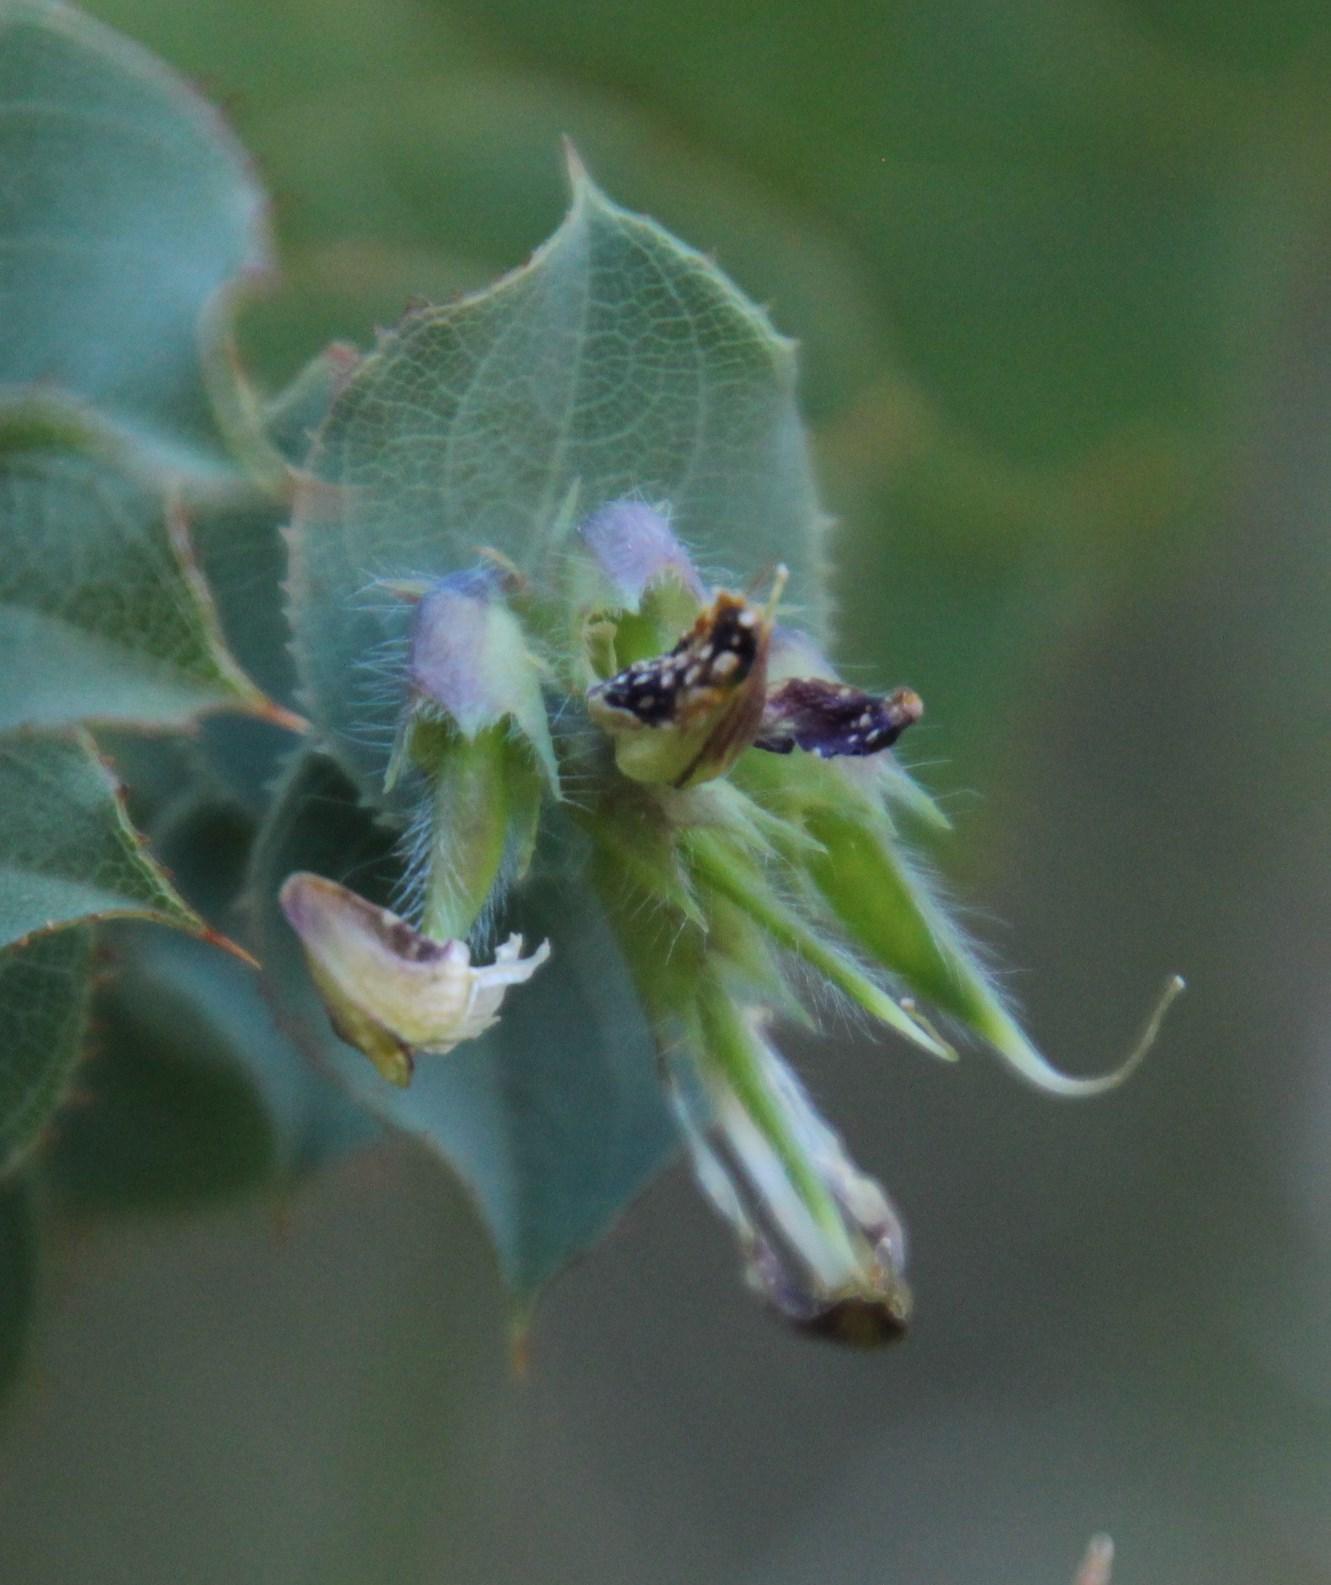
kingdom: Plantae
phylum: Tracheophyta
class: Magnoliopsida
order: Fabales
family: Fabaceae
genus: Aspalathus
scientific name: Aspalathus perfoliata
